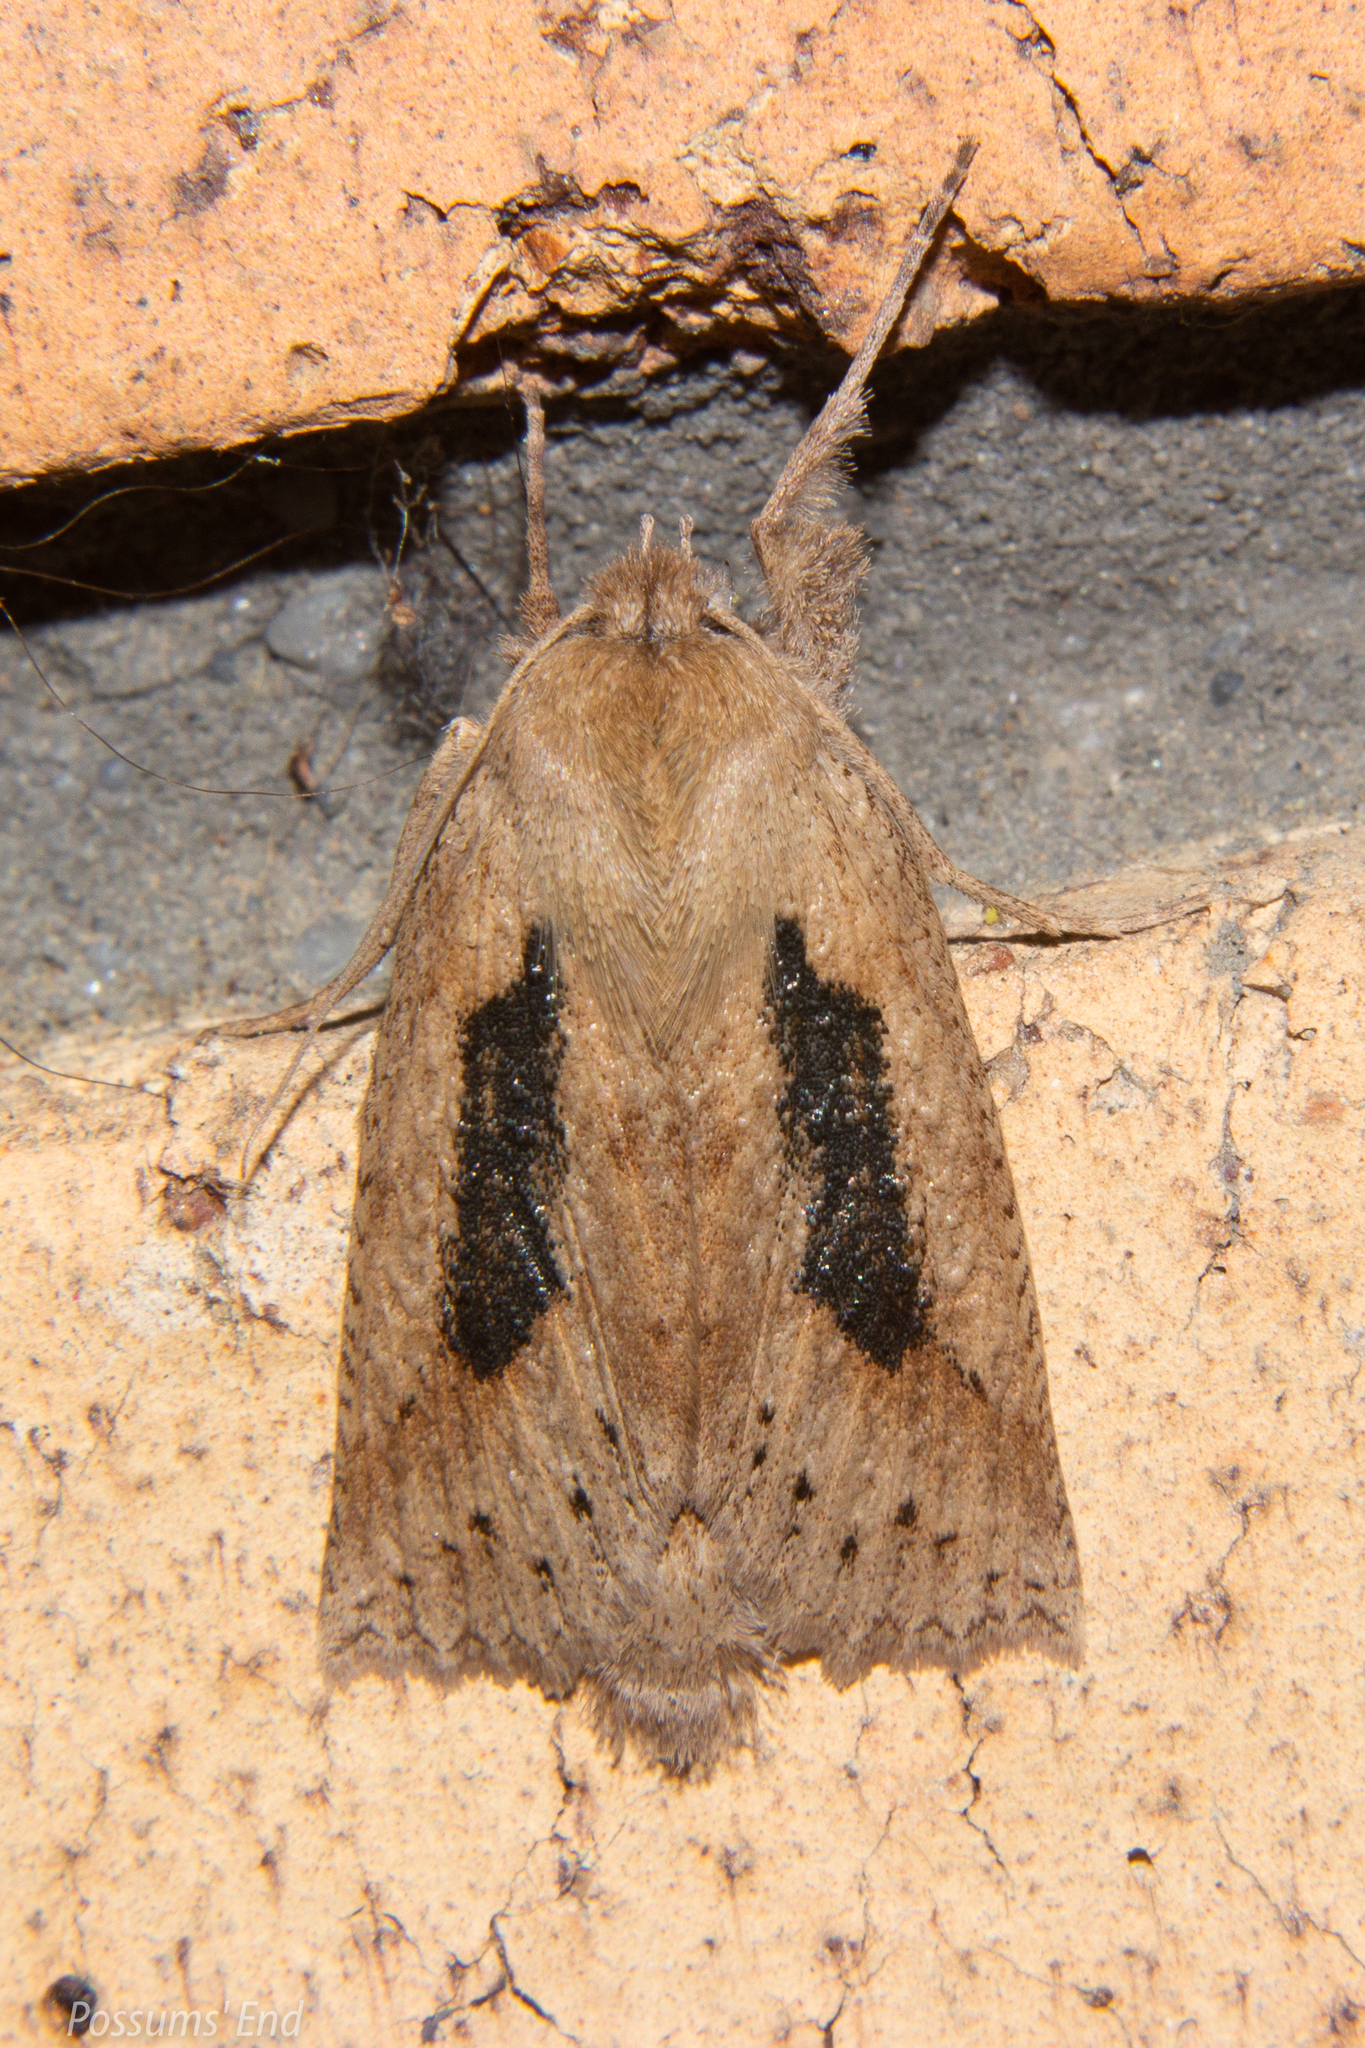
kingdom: Animalia
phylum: Arthropoda
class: Insecta
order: Lepidoptera
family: Geometridae
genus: Declana
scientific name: Declana leptomera
